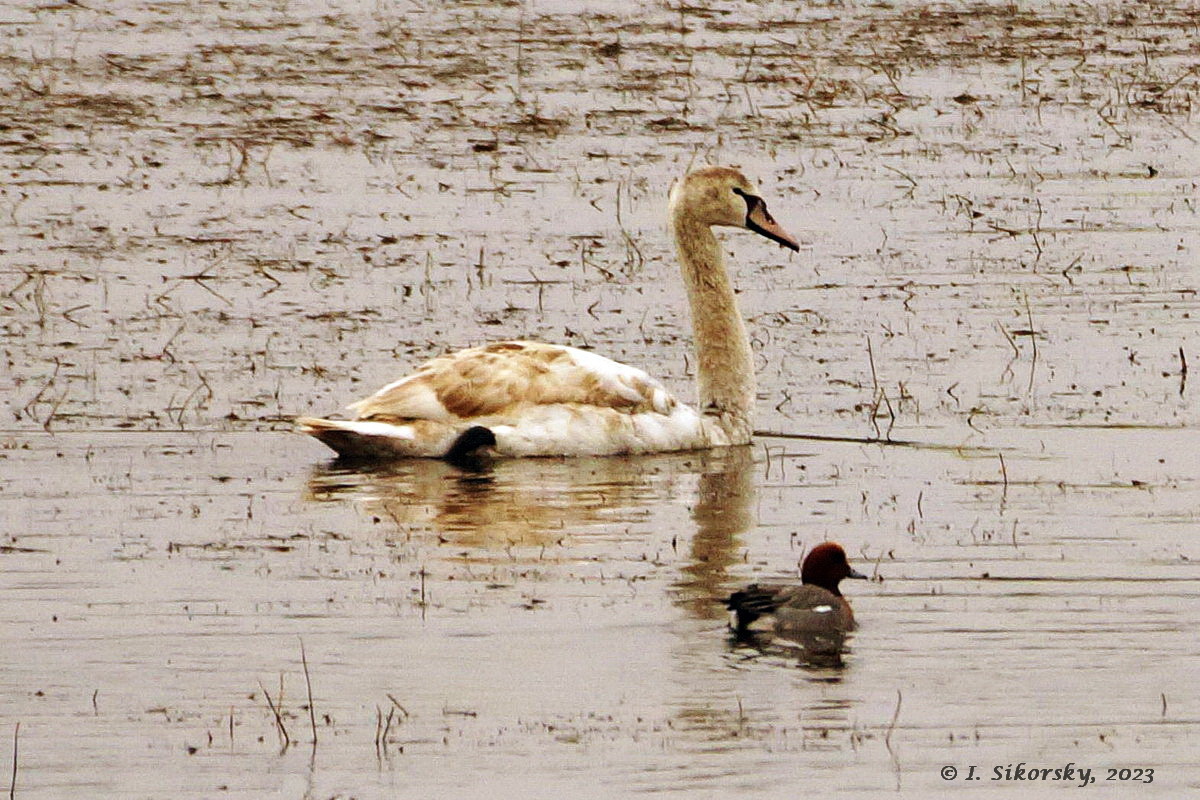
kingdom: Animalia
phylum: Chordata
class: Aves
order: Anseriformes
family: Anatidae
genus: Mareca
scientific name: Mareca penelope
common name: Eurasian wigeon
